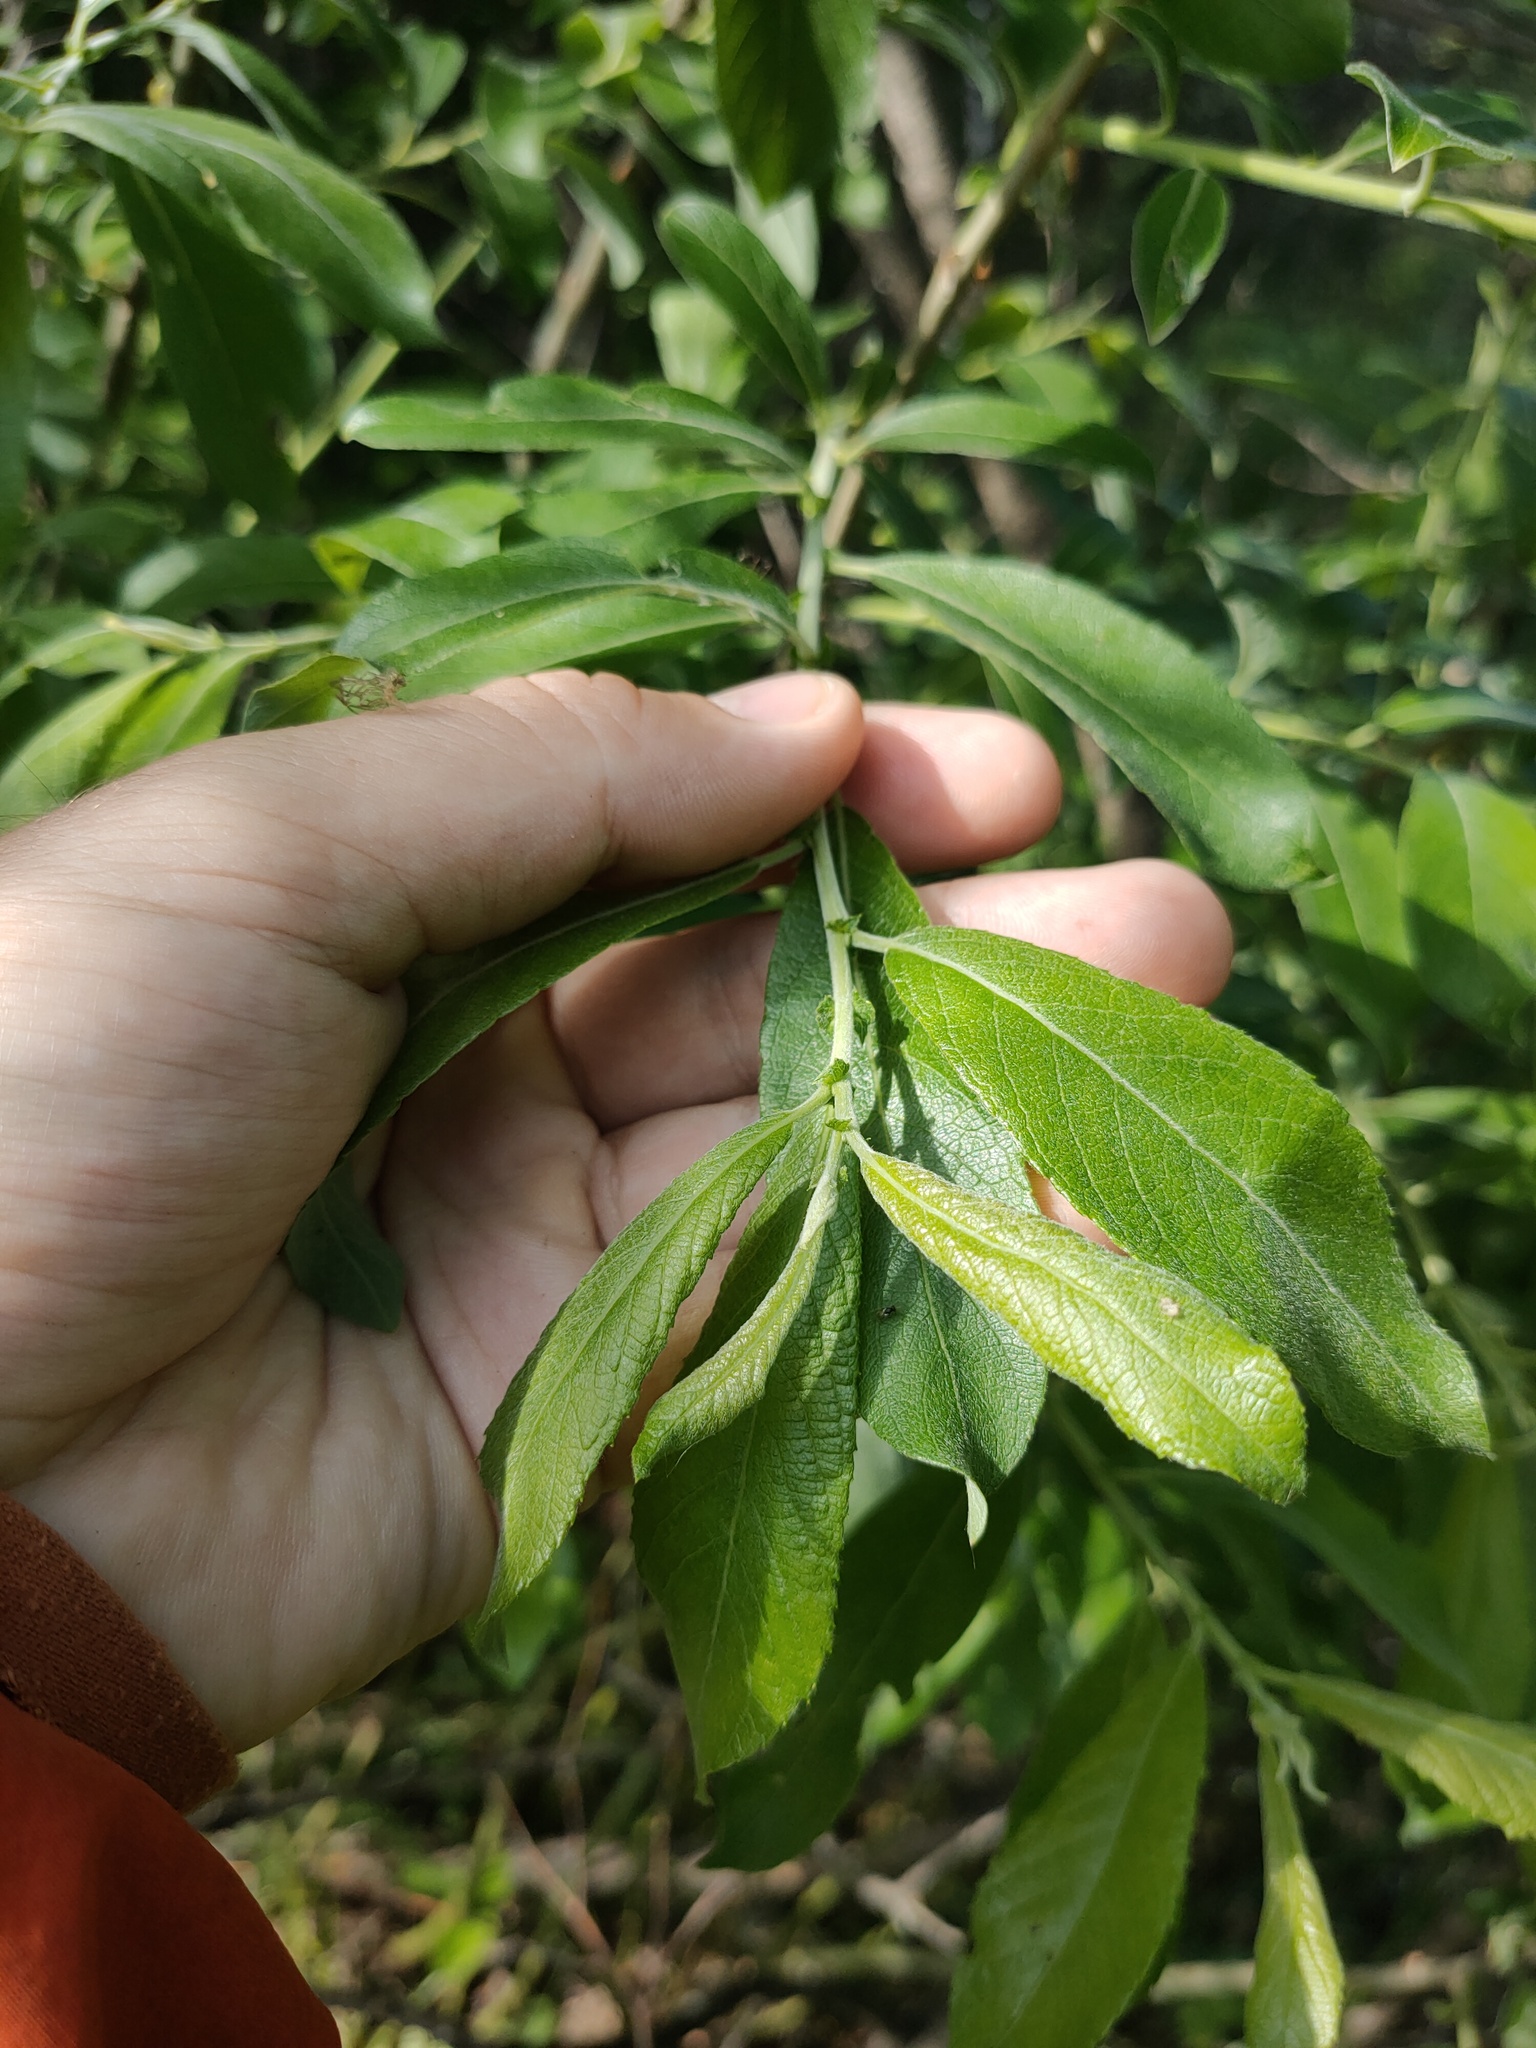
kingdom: Plantae
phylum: Tracheophyta
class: Magnoliopsida
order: Malpighiales
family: Salicaceae
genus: Salix
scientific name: Salix cinerea
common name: Common sallow
